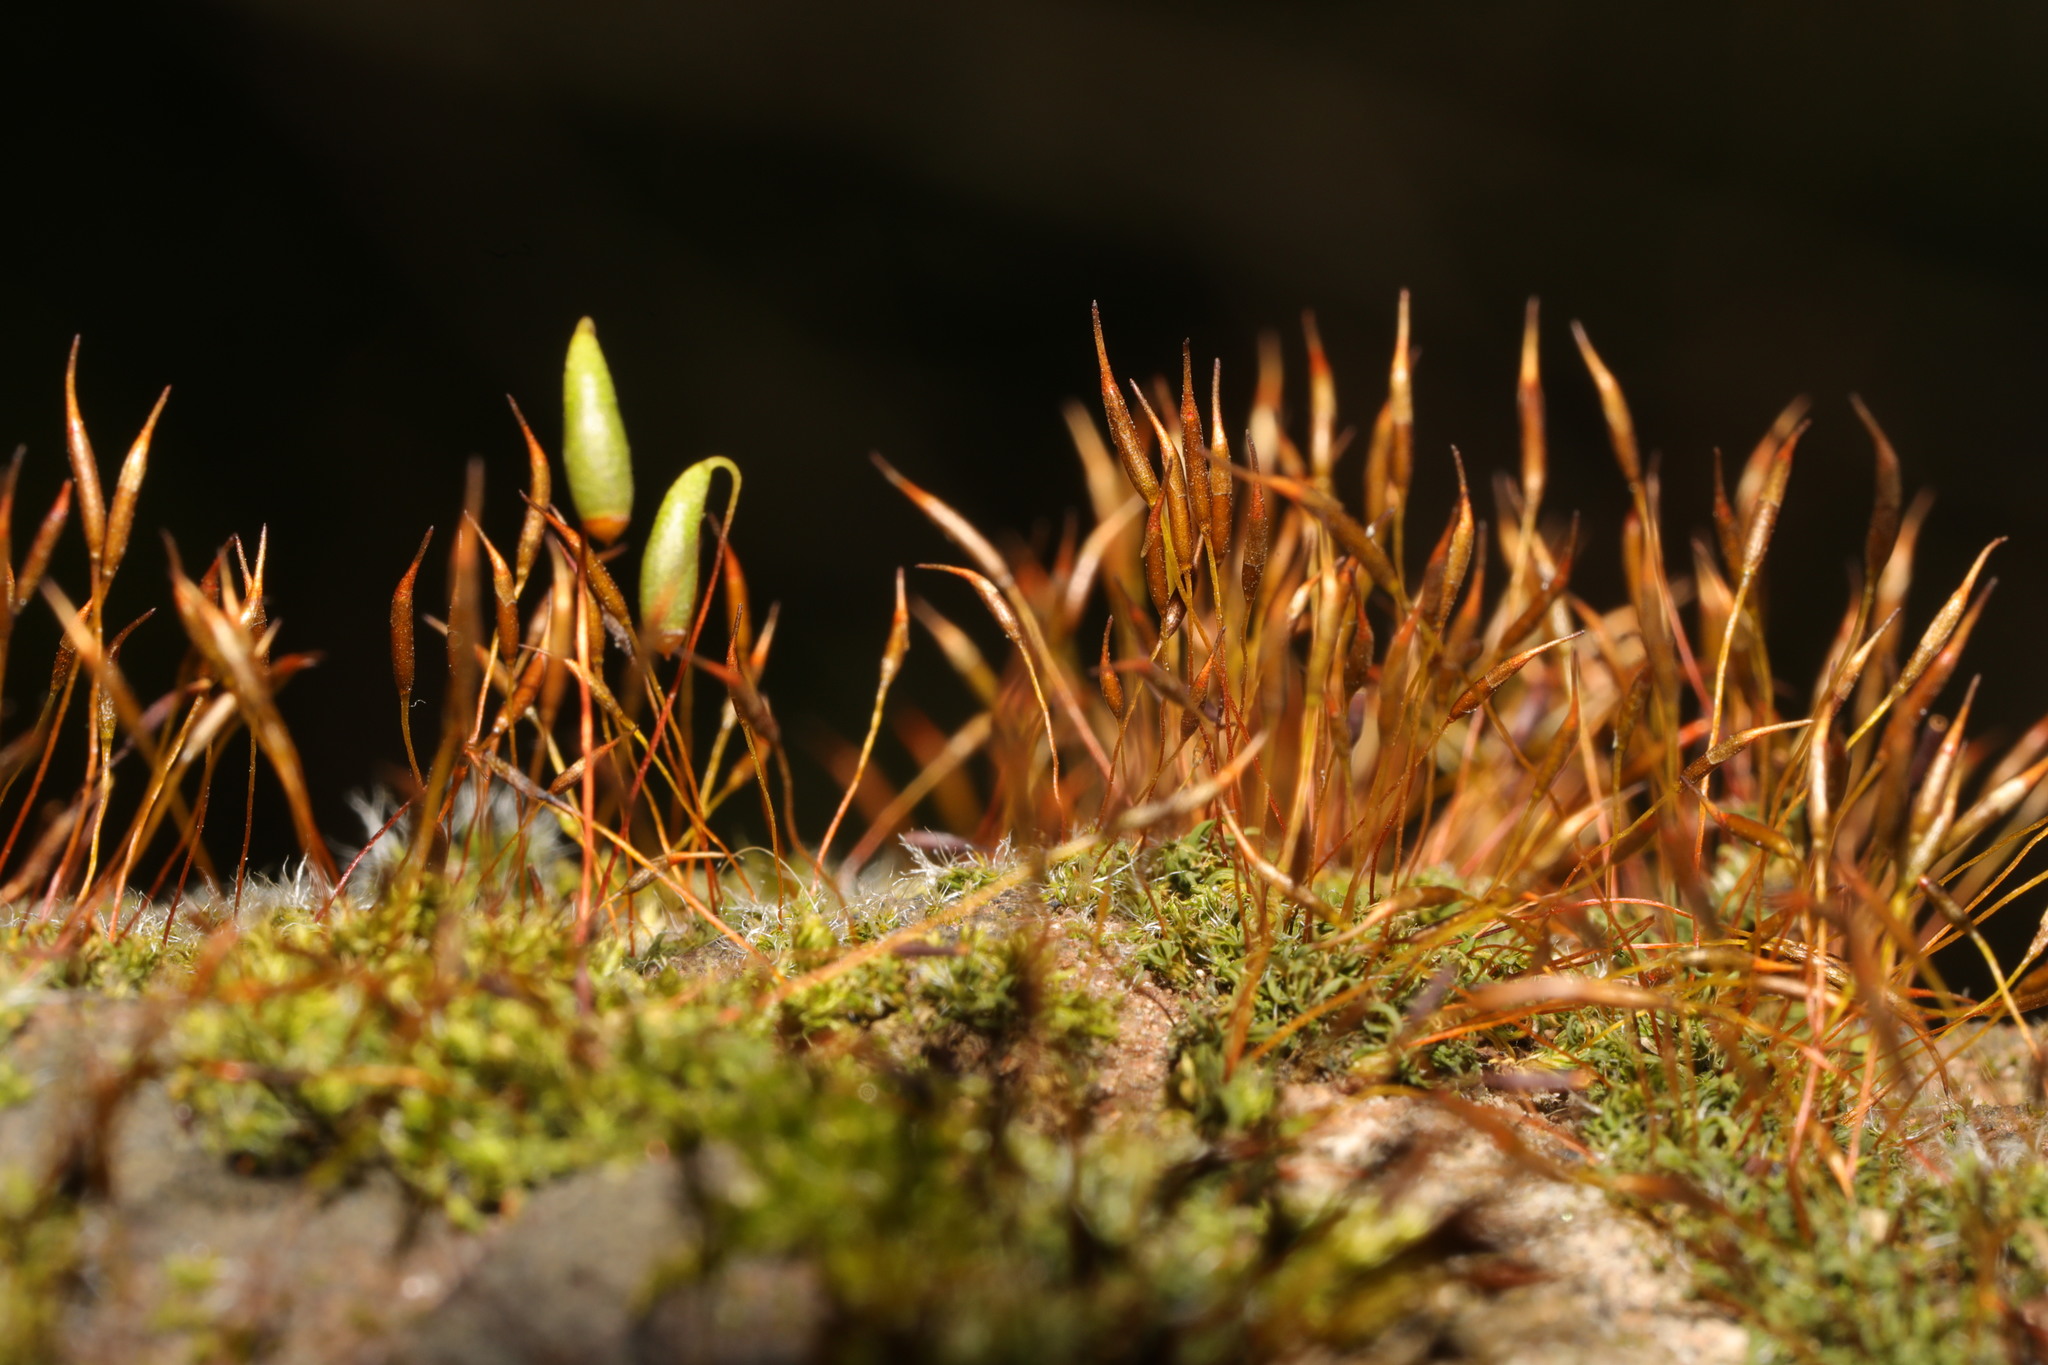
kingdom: Plantae
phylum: Bryophyta
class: Bryopsida
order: Pottiales
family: Pottiaceae
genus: Tortula
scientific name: Tortula muralis
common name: Wall screw-moss
